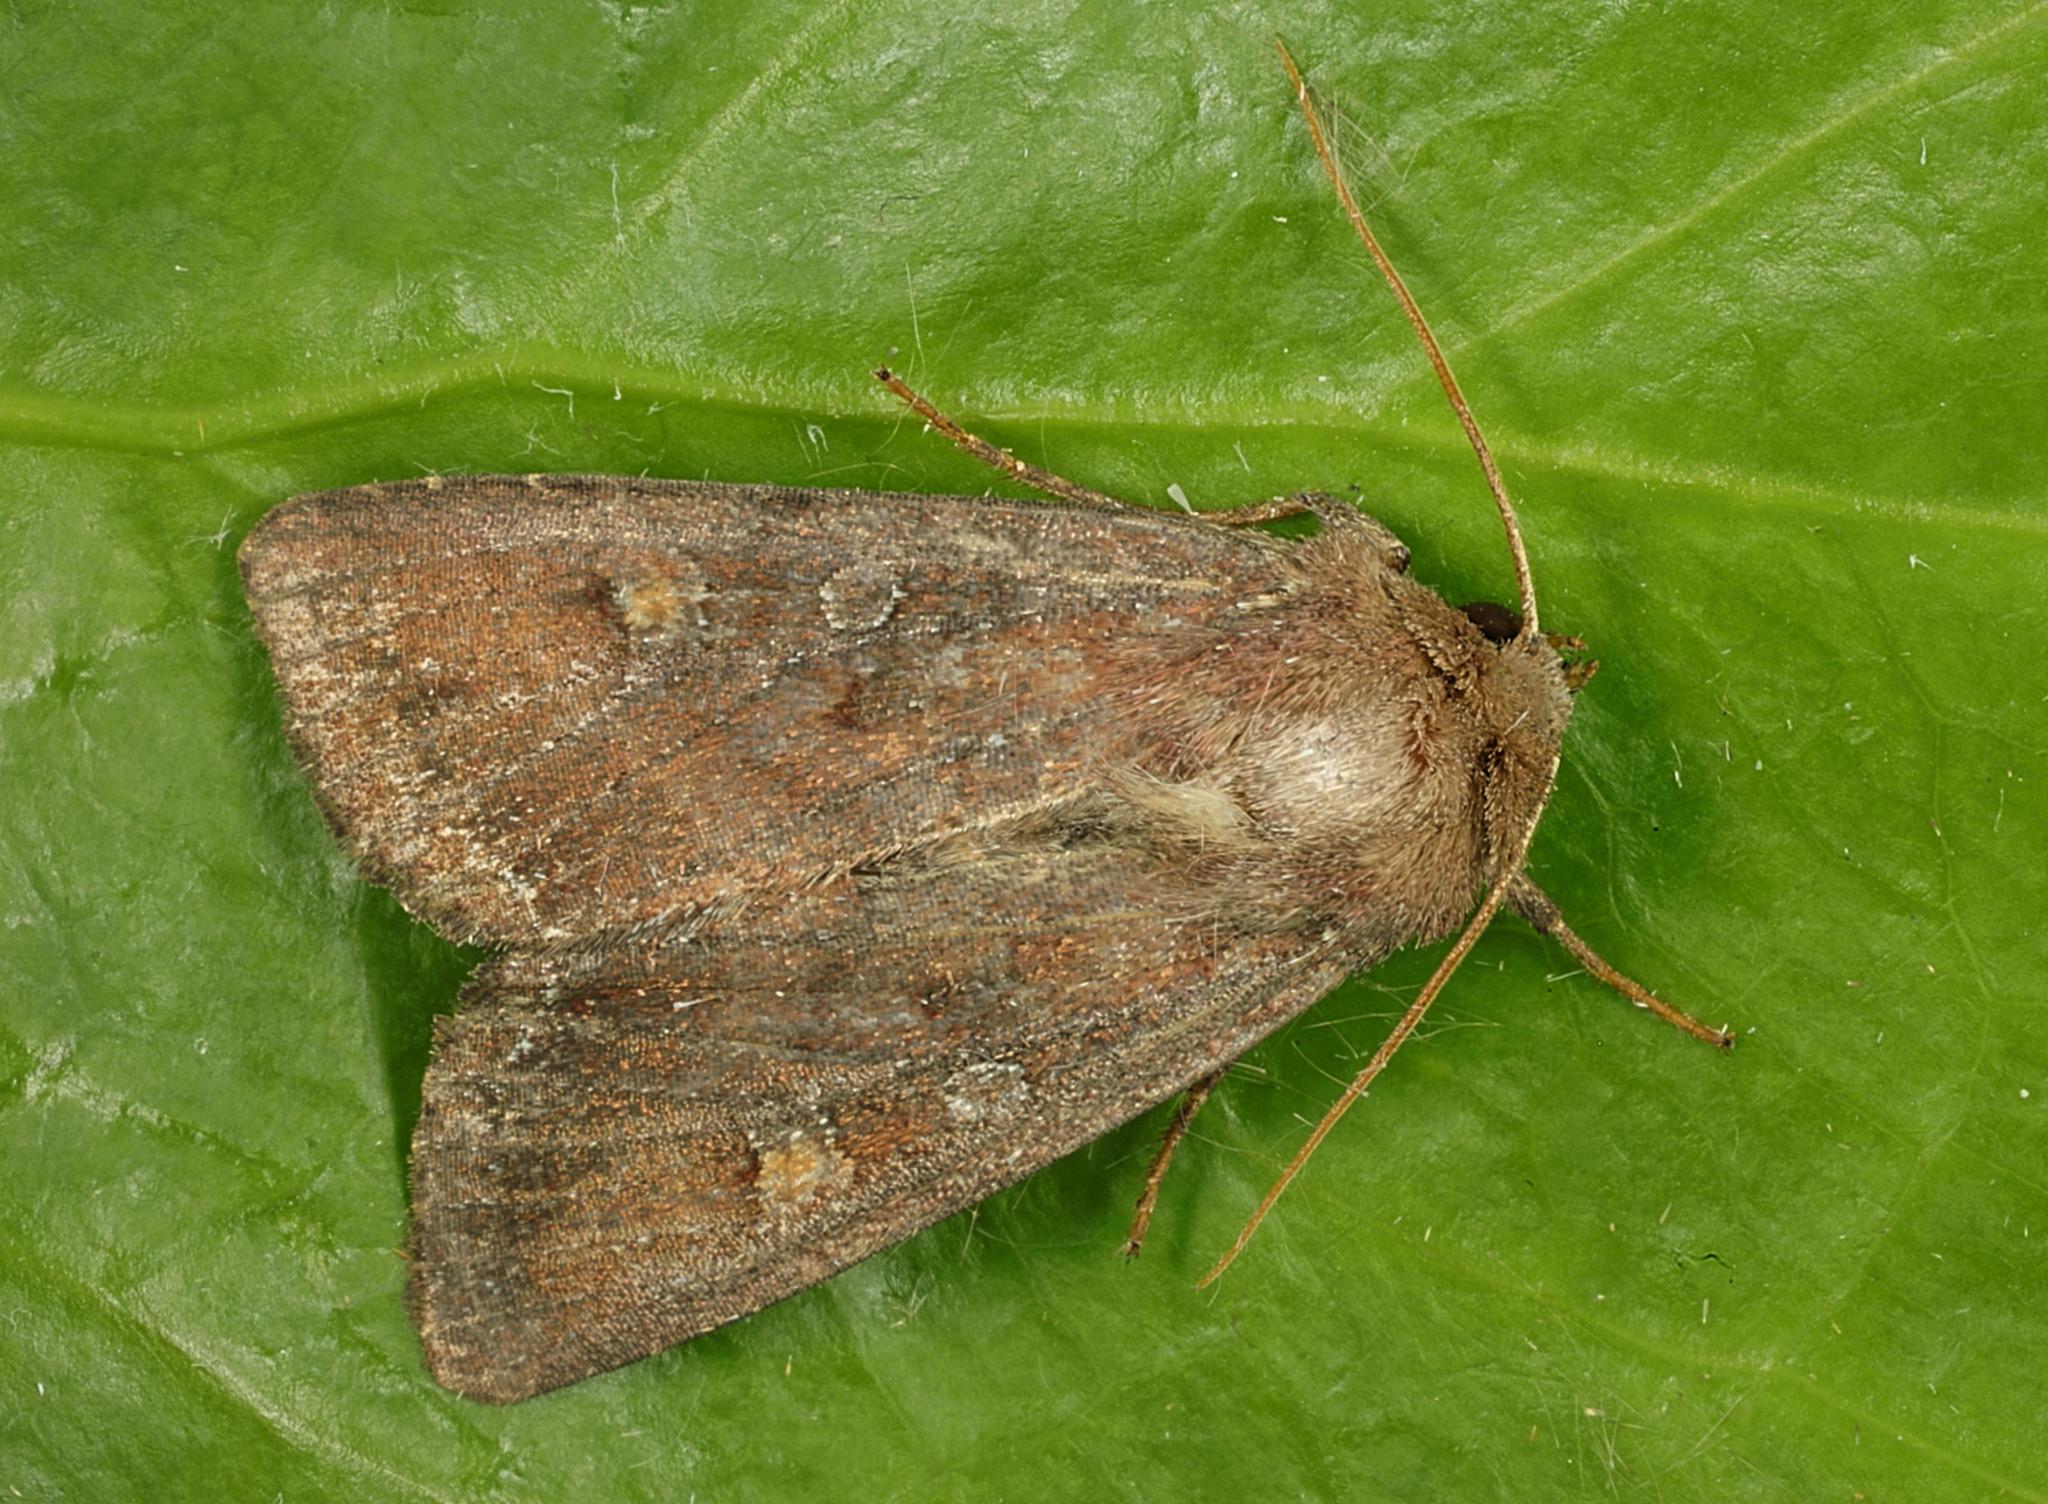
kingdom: Animalia
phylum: Arthropoda
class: Insecta
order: Lepidoptera
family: Noctuidae
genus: Lacanobia
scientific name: Lacanobia oleracea
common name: Bright-line brown-eye
